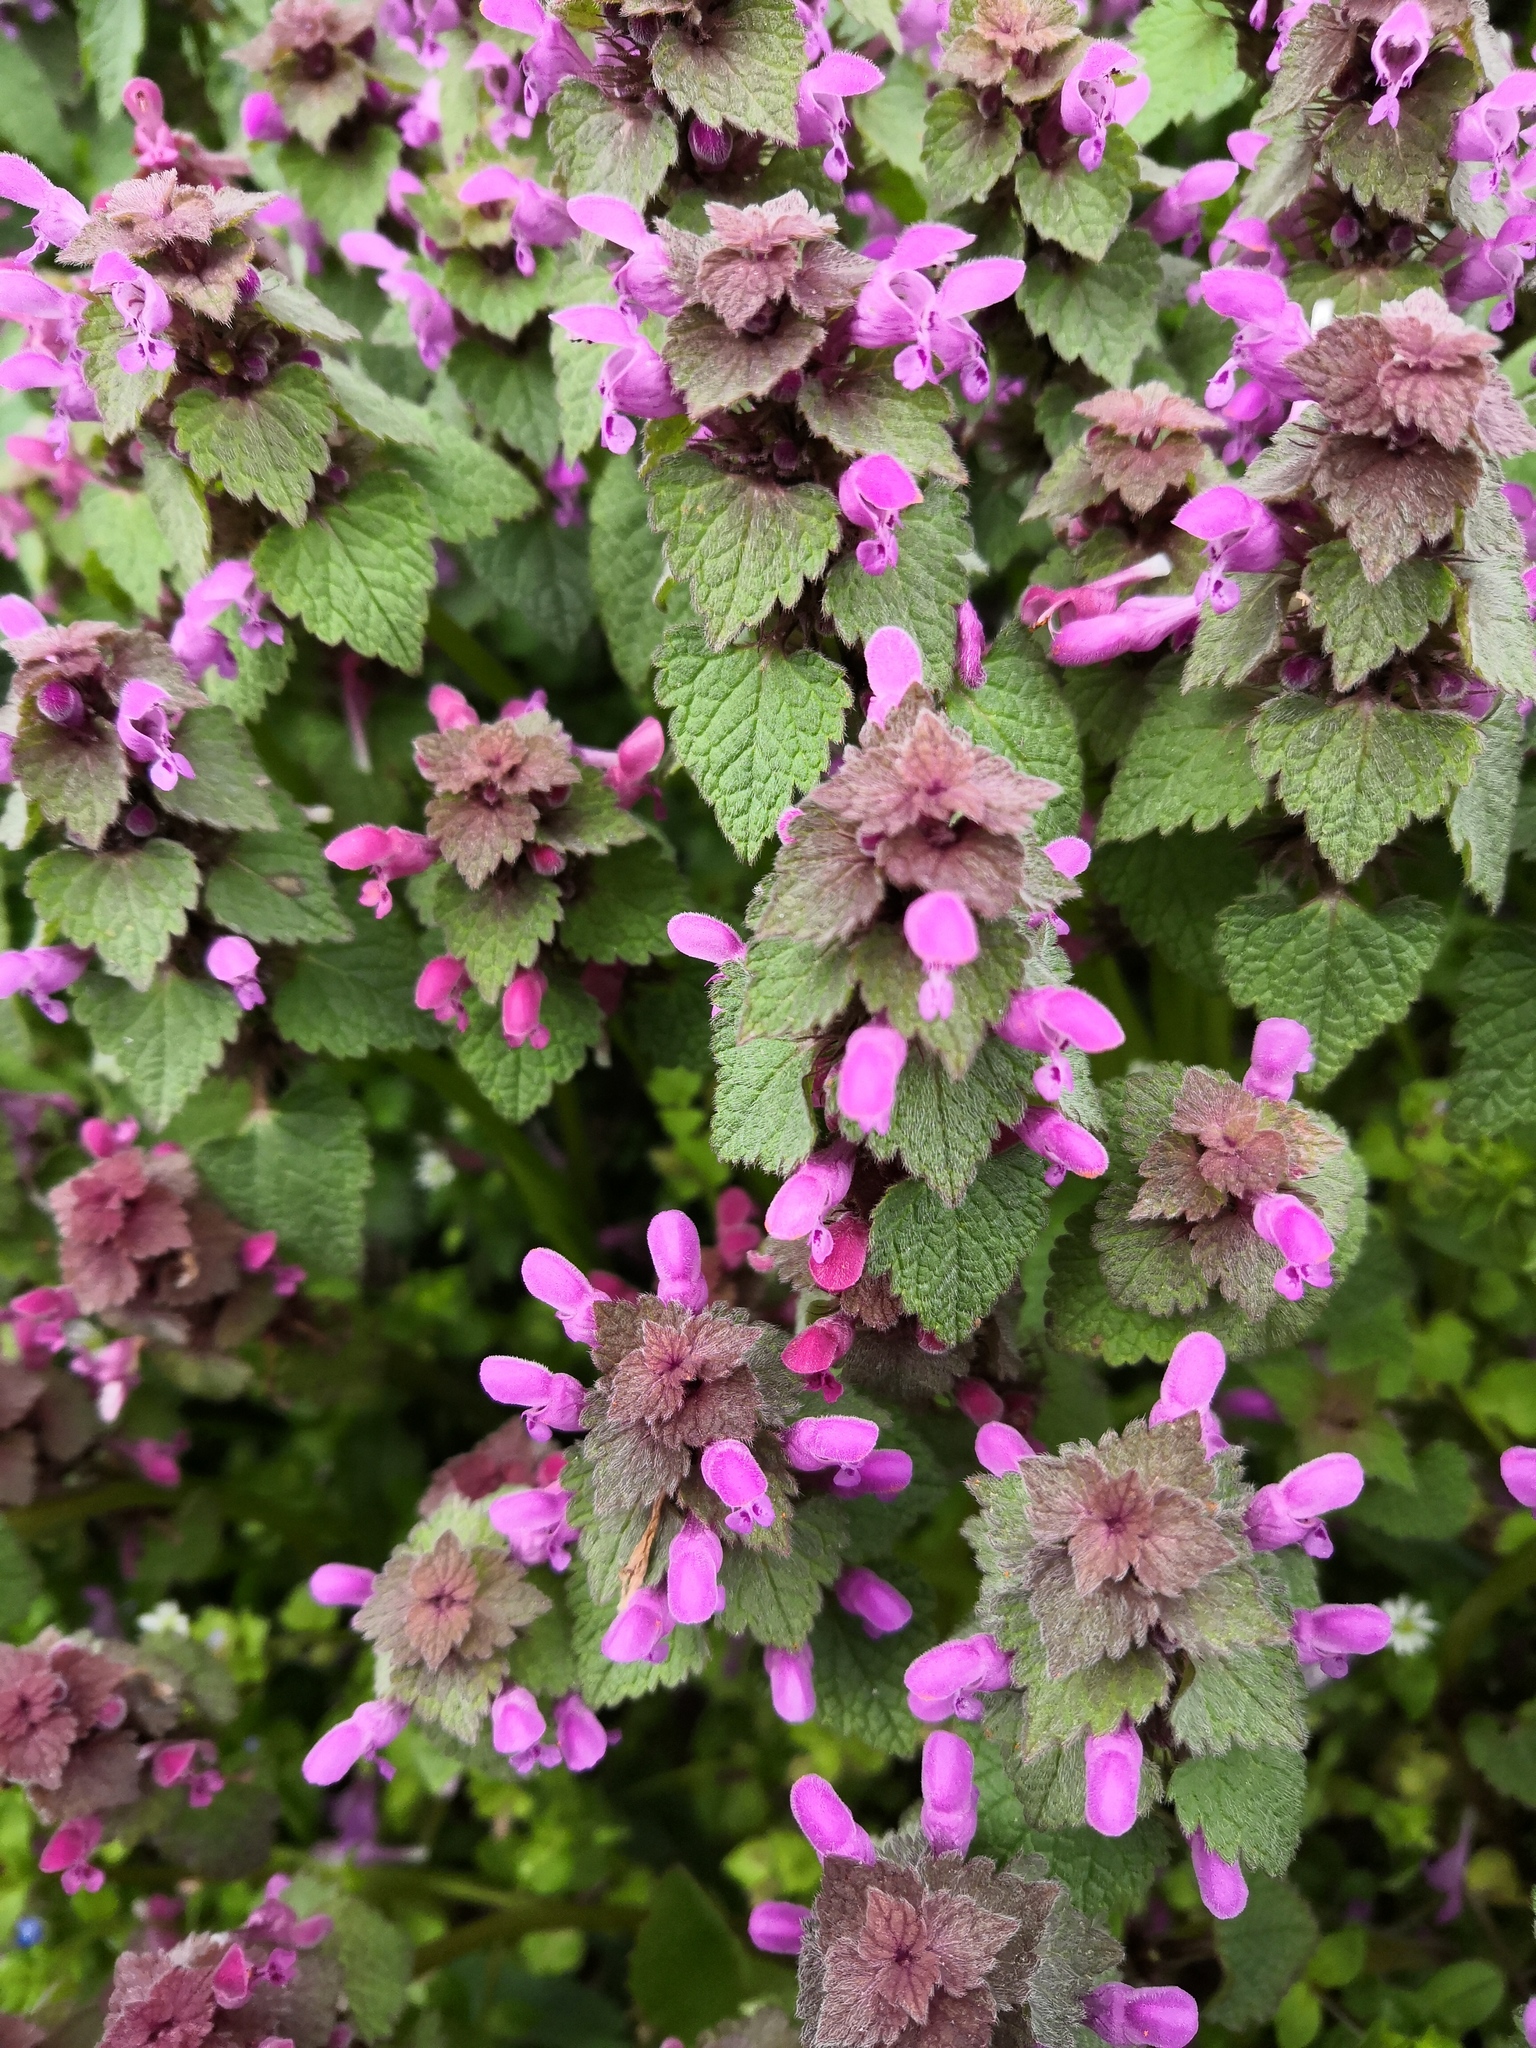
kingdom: Plantae
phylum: Tracheophyta
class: Magnoliopsida
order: Lamiales
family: Lamiaceae
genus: Lamium
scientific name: Lamium purpureum
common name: Red dead-nettle
